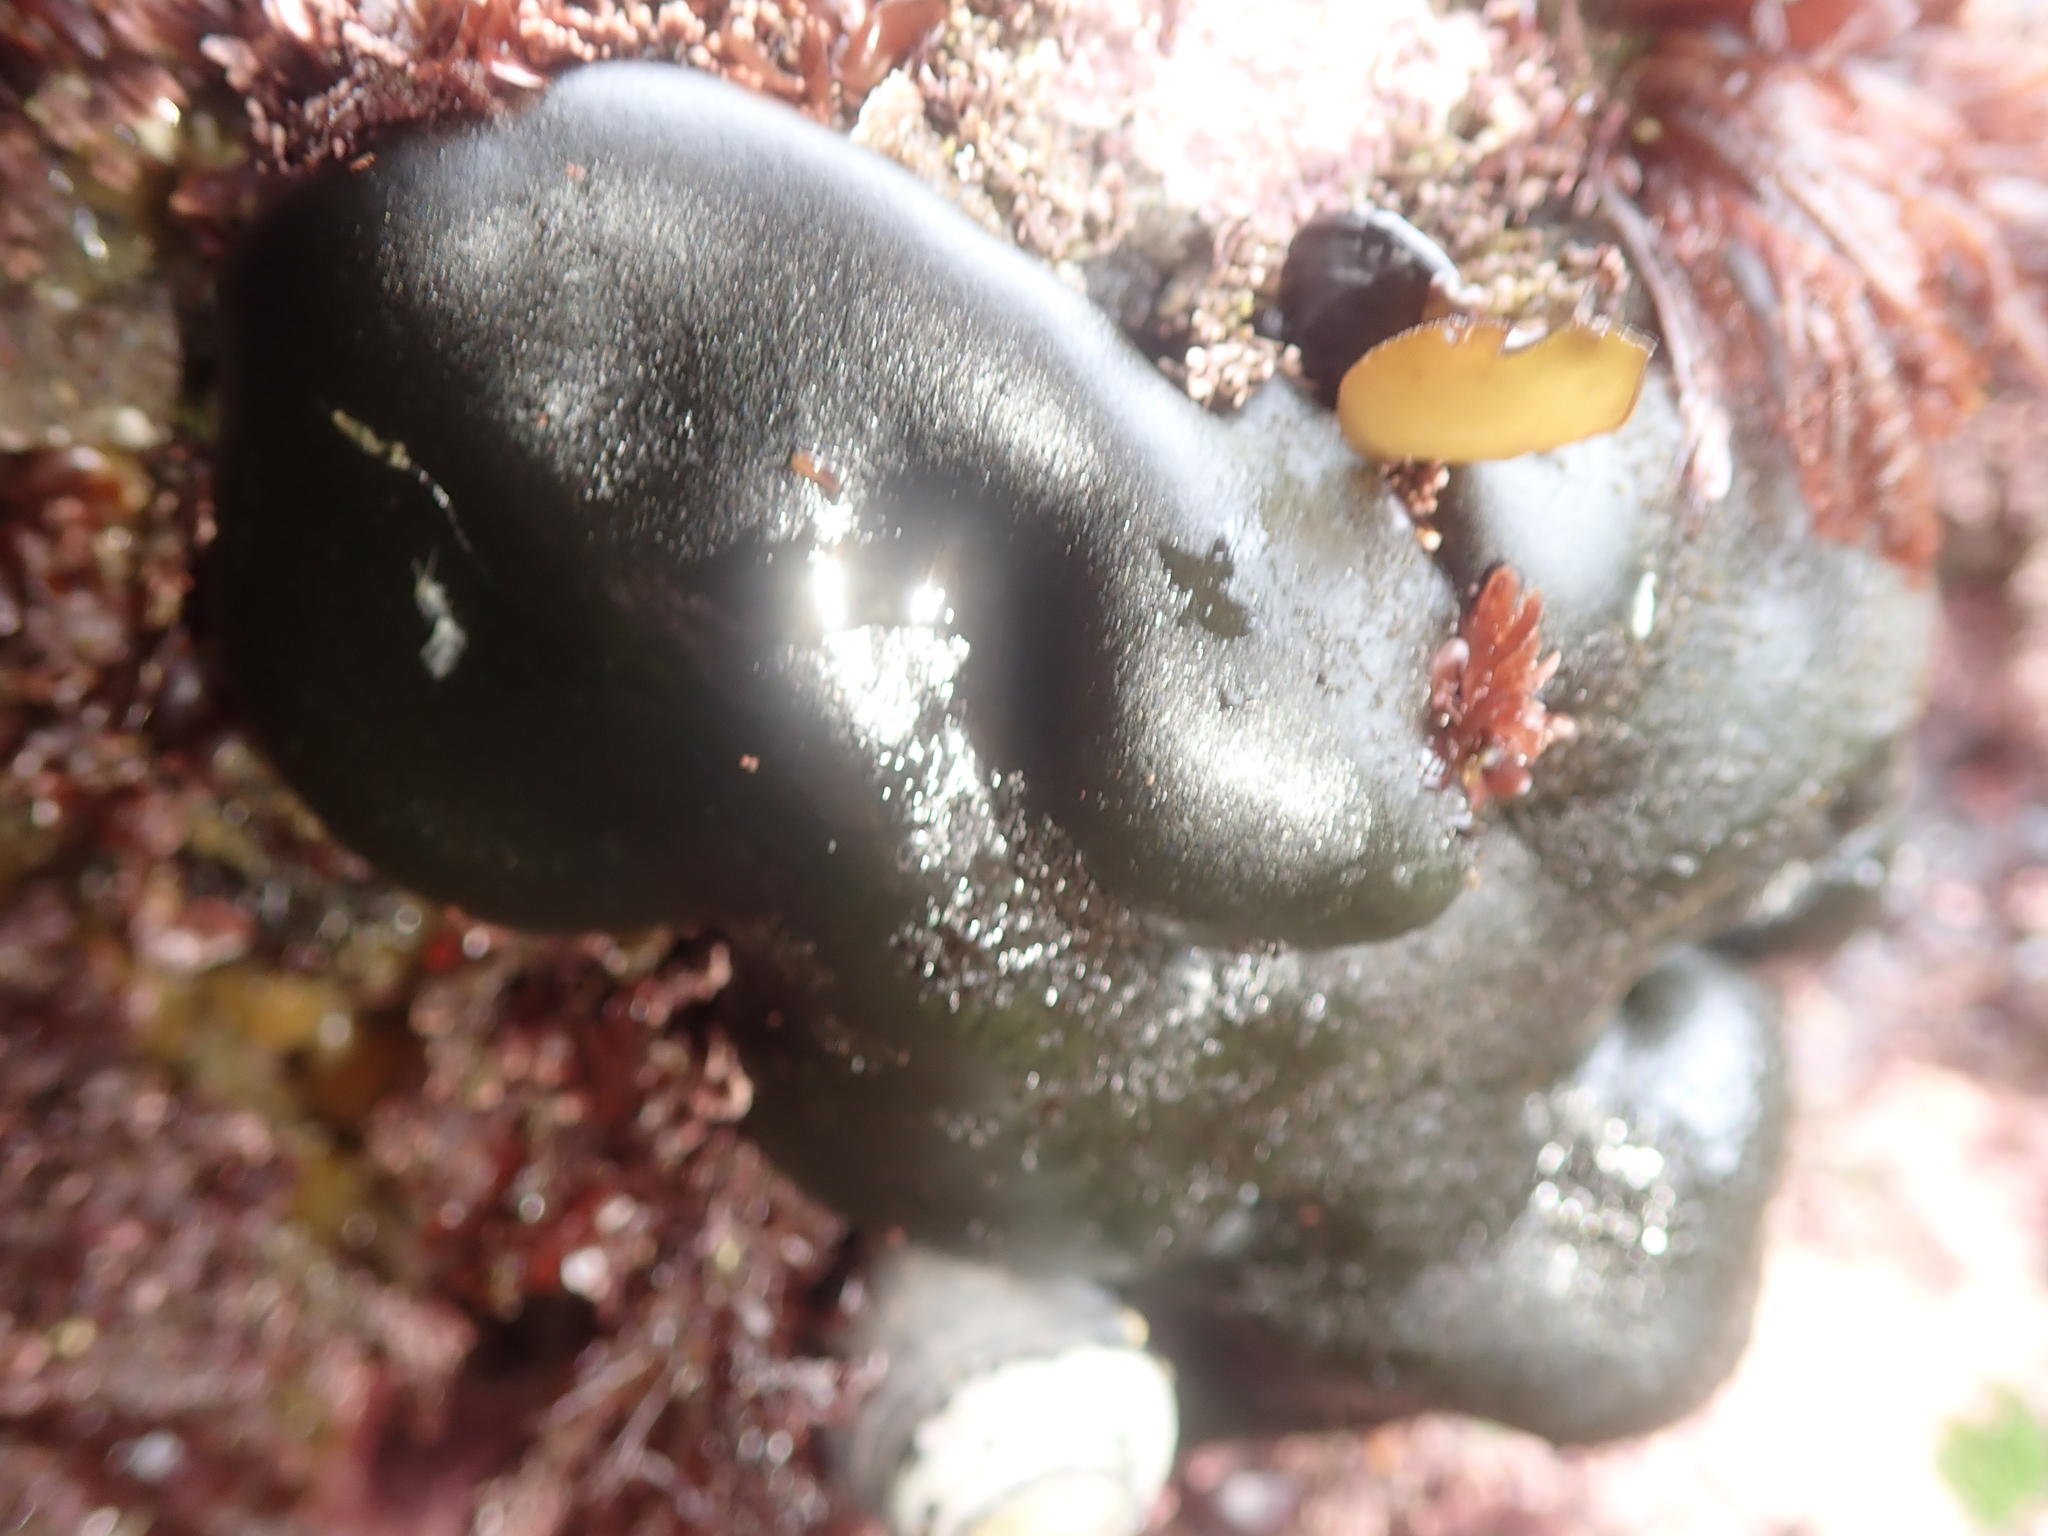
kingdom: Plantae
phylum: Chlorophyta
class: Ulvophyceae
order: Bryopsidales
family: Codiaceae
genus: Codium
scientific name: Codium setchellii
